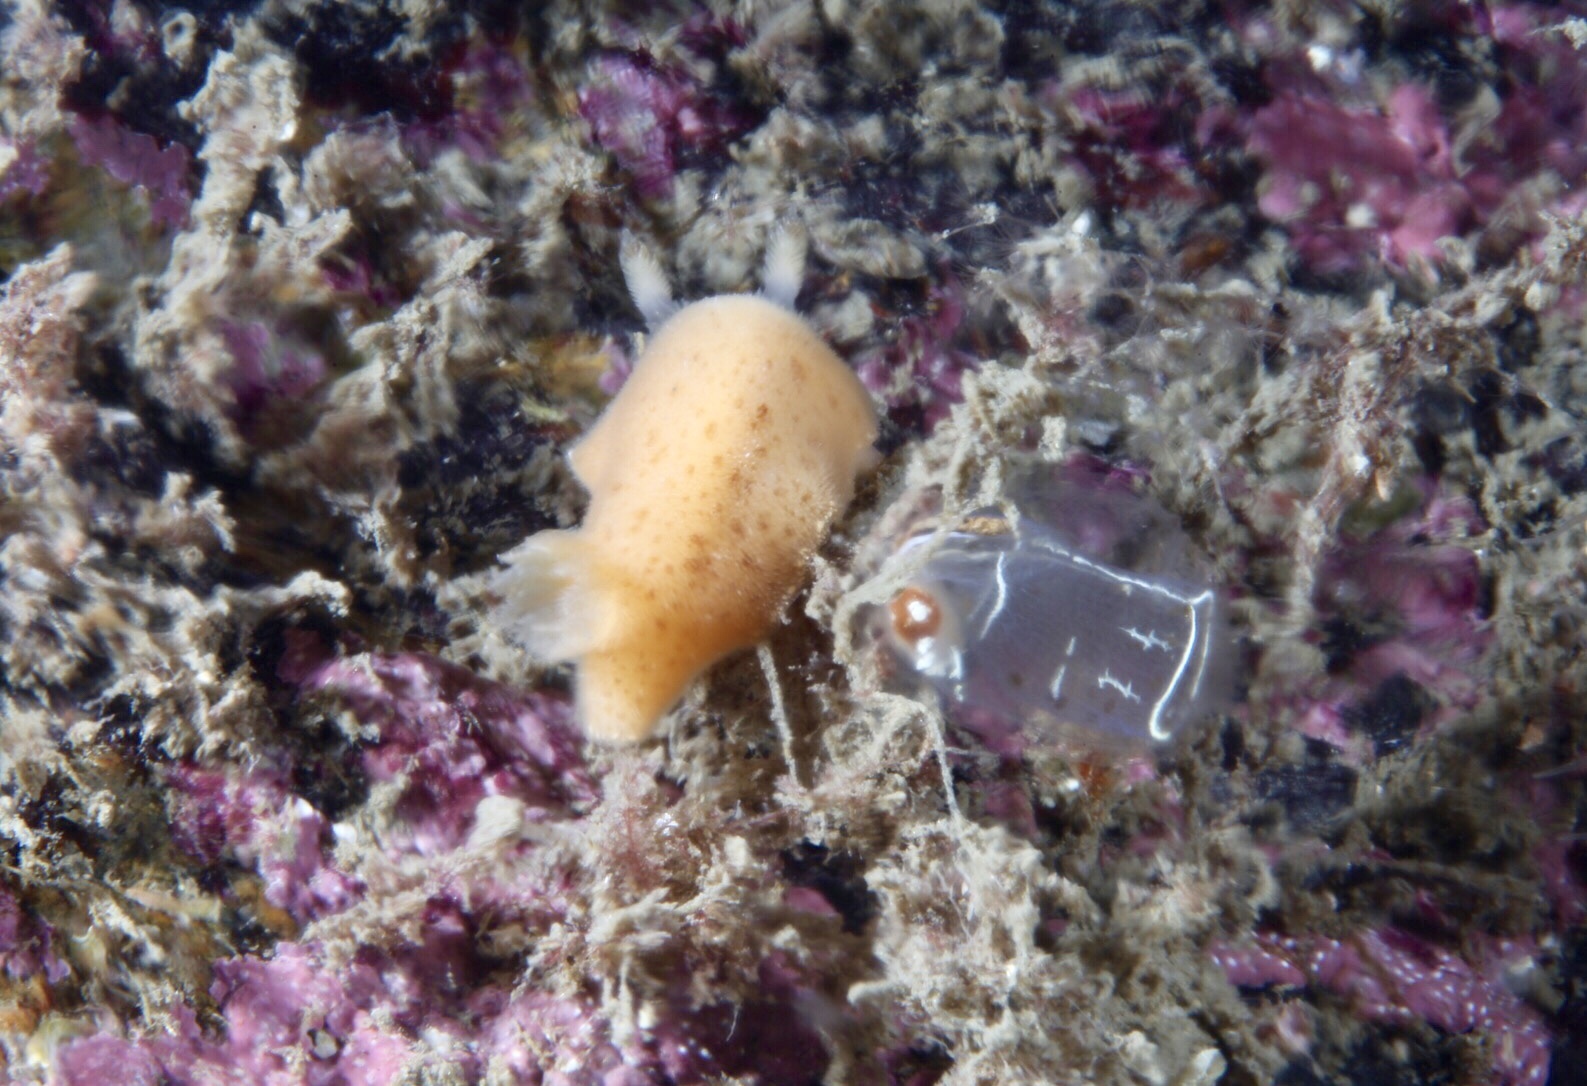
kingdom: Animalia
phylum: Mollusca
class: Gastropoda
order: Nudibranchia
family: Discodorididae
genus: Jorunna
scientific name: Jorunna tomentosa
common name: Grey sea slug
